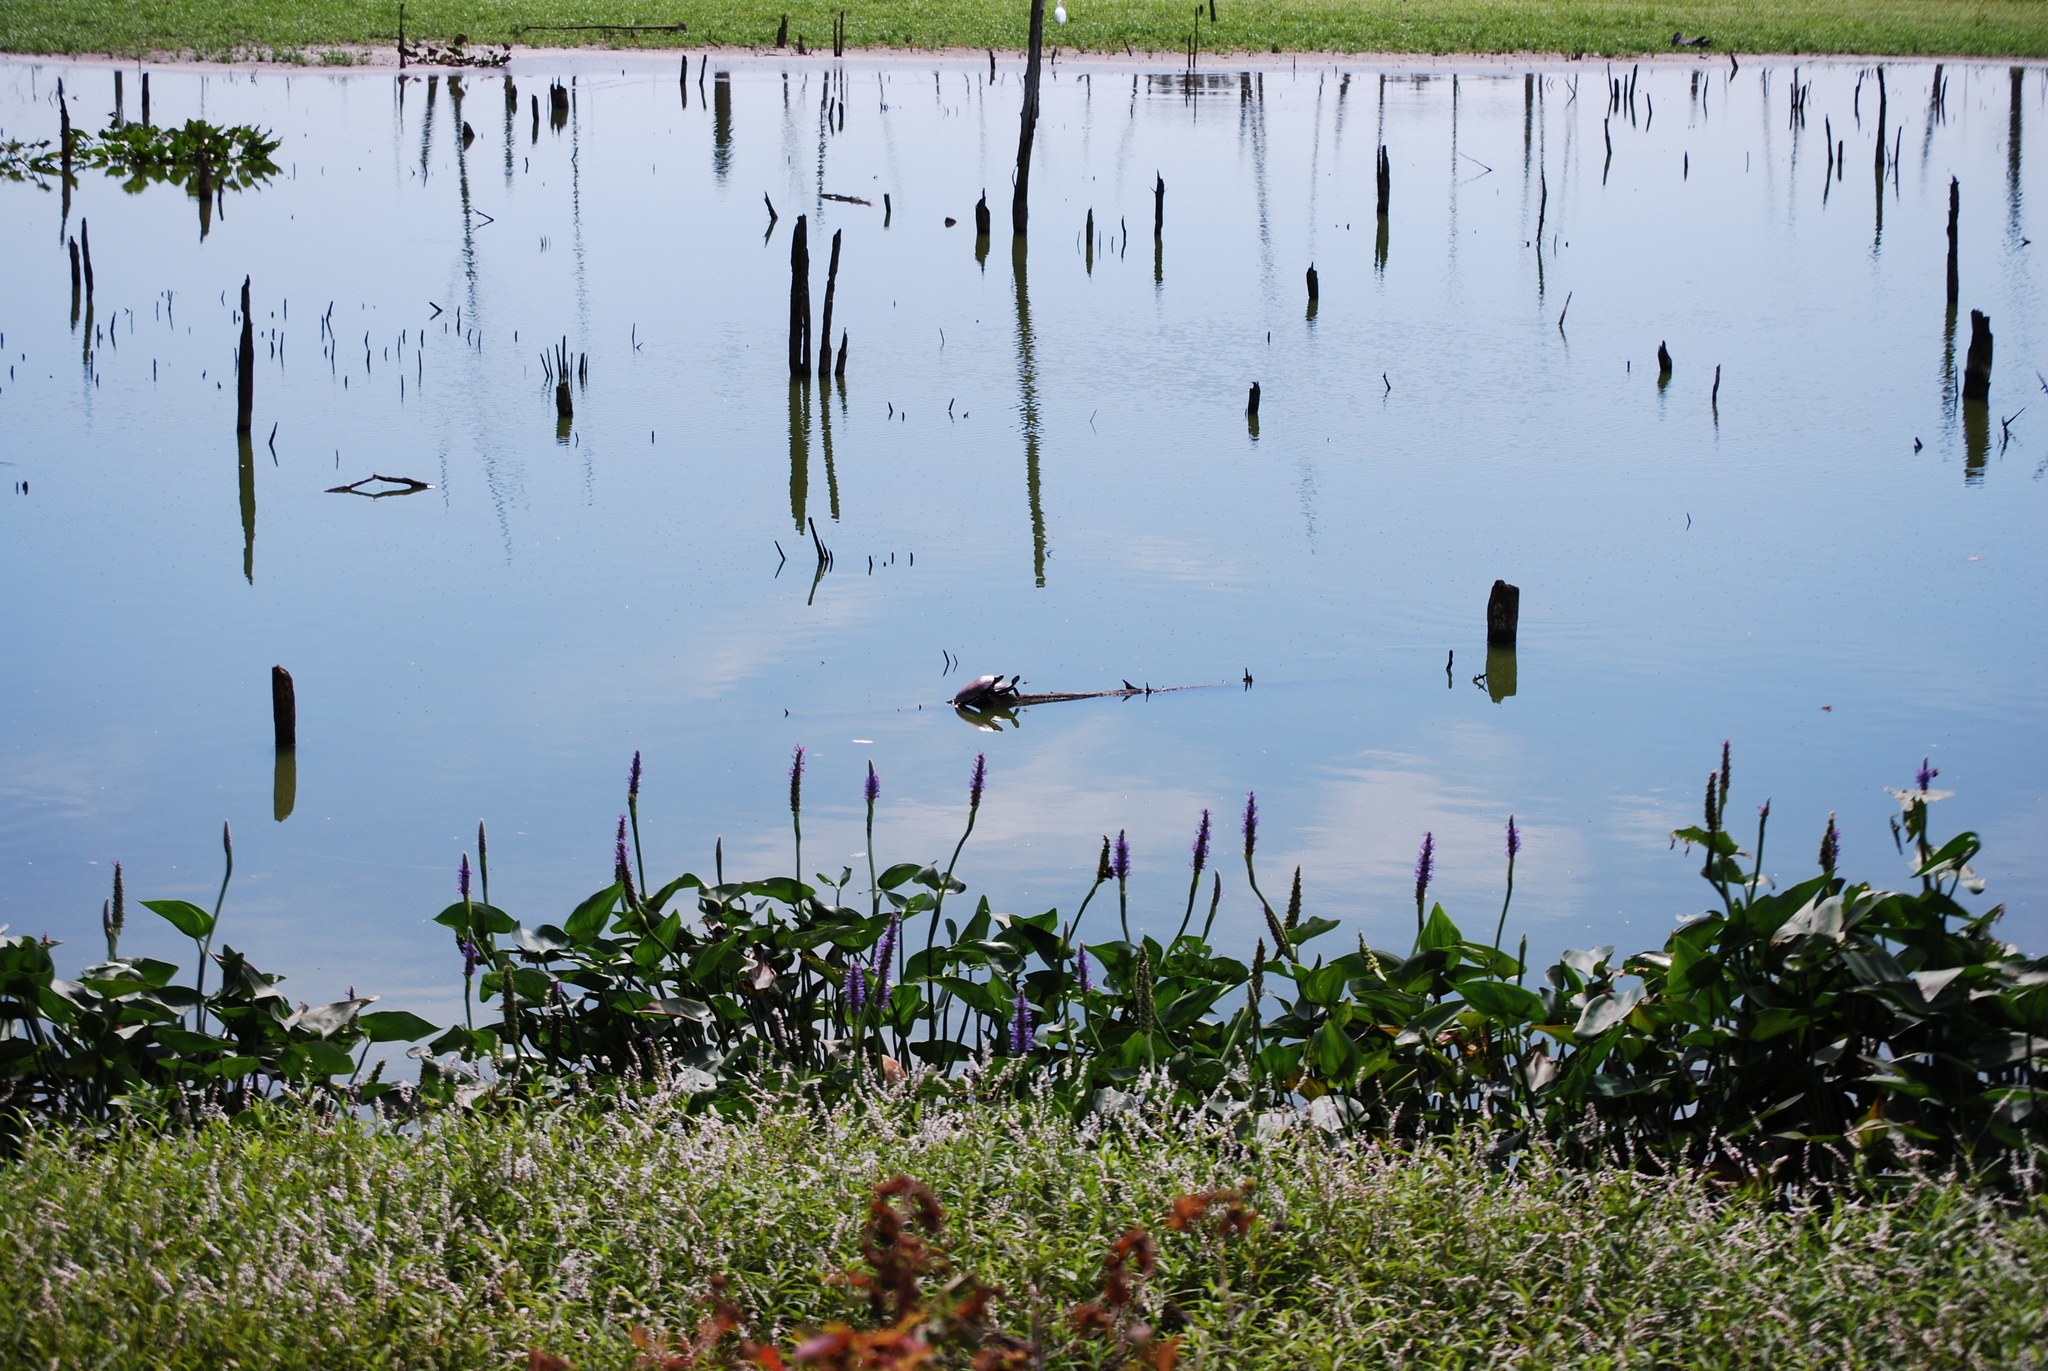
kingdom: Animalia
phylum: Chordata
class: Testudines
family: Emydidae
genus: Chrysemys
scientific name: Chrysemys picta
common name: Painted turtle
